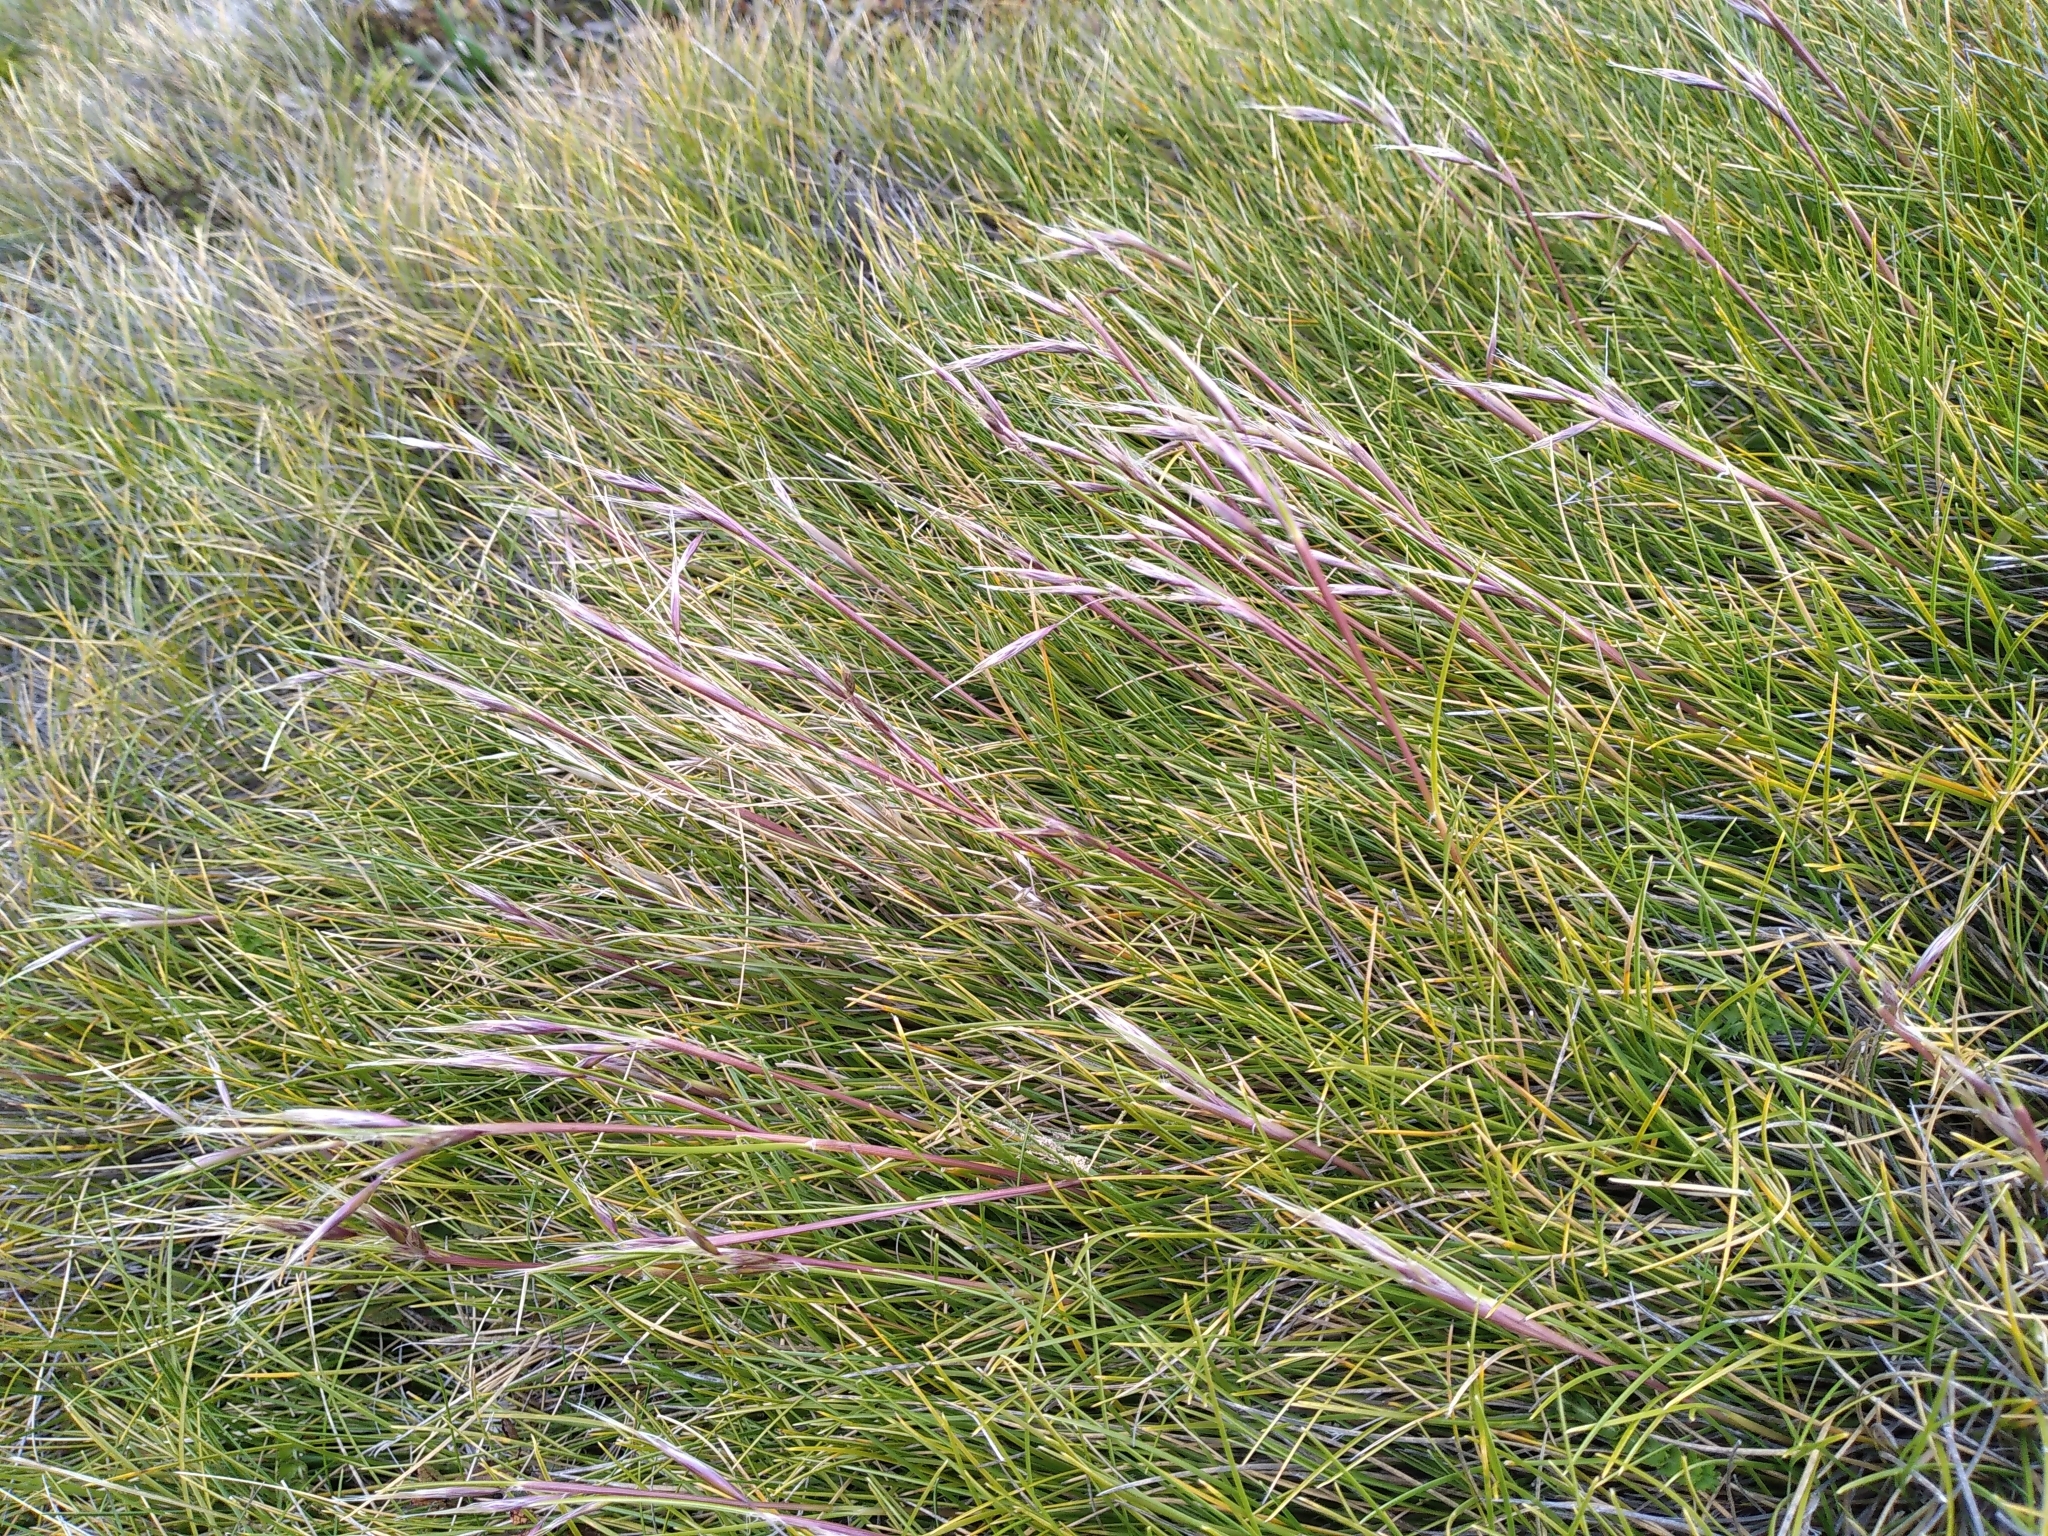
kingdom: Plantae
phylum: Tracheophyta
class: Liliopsida
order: Poales
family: Poaceae
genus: Chionochloa
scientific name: Chionochloa australis
